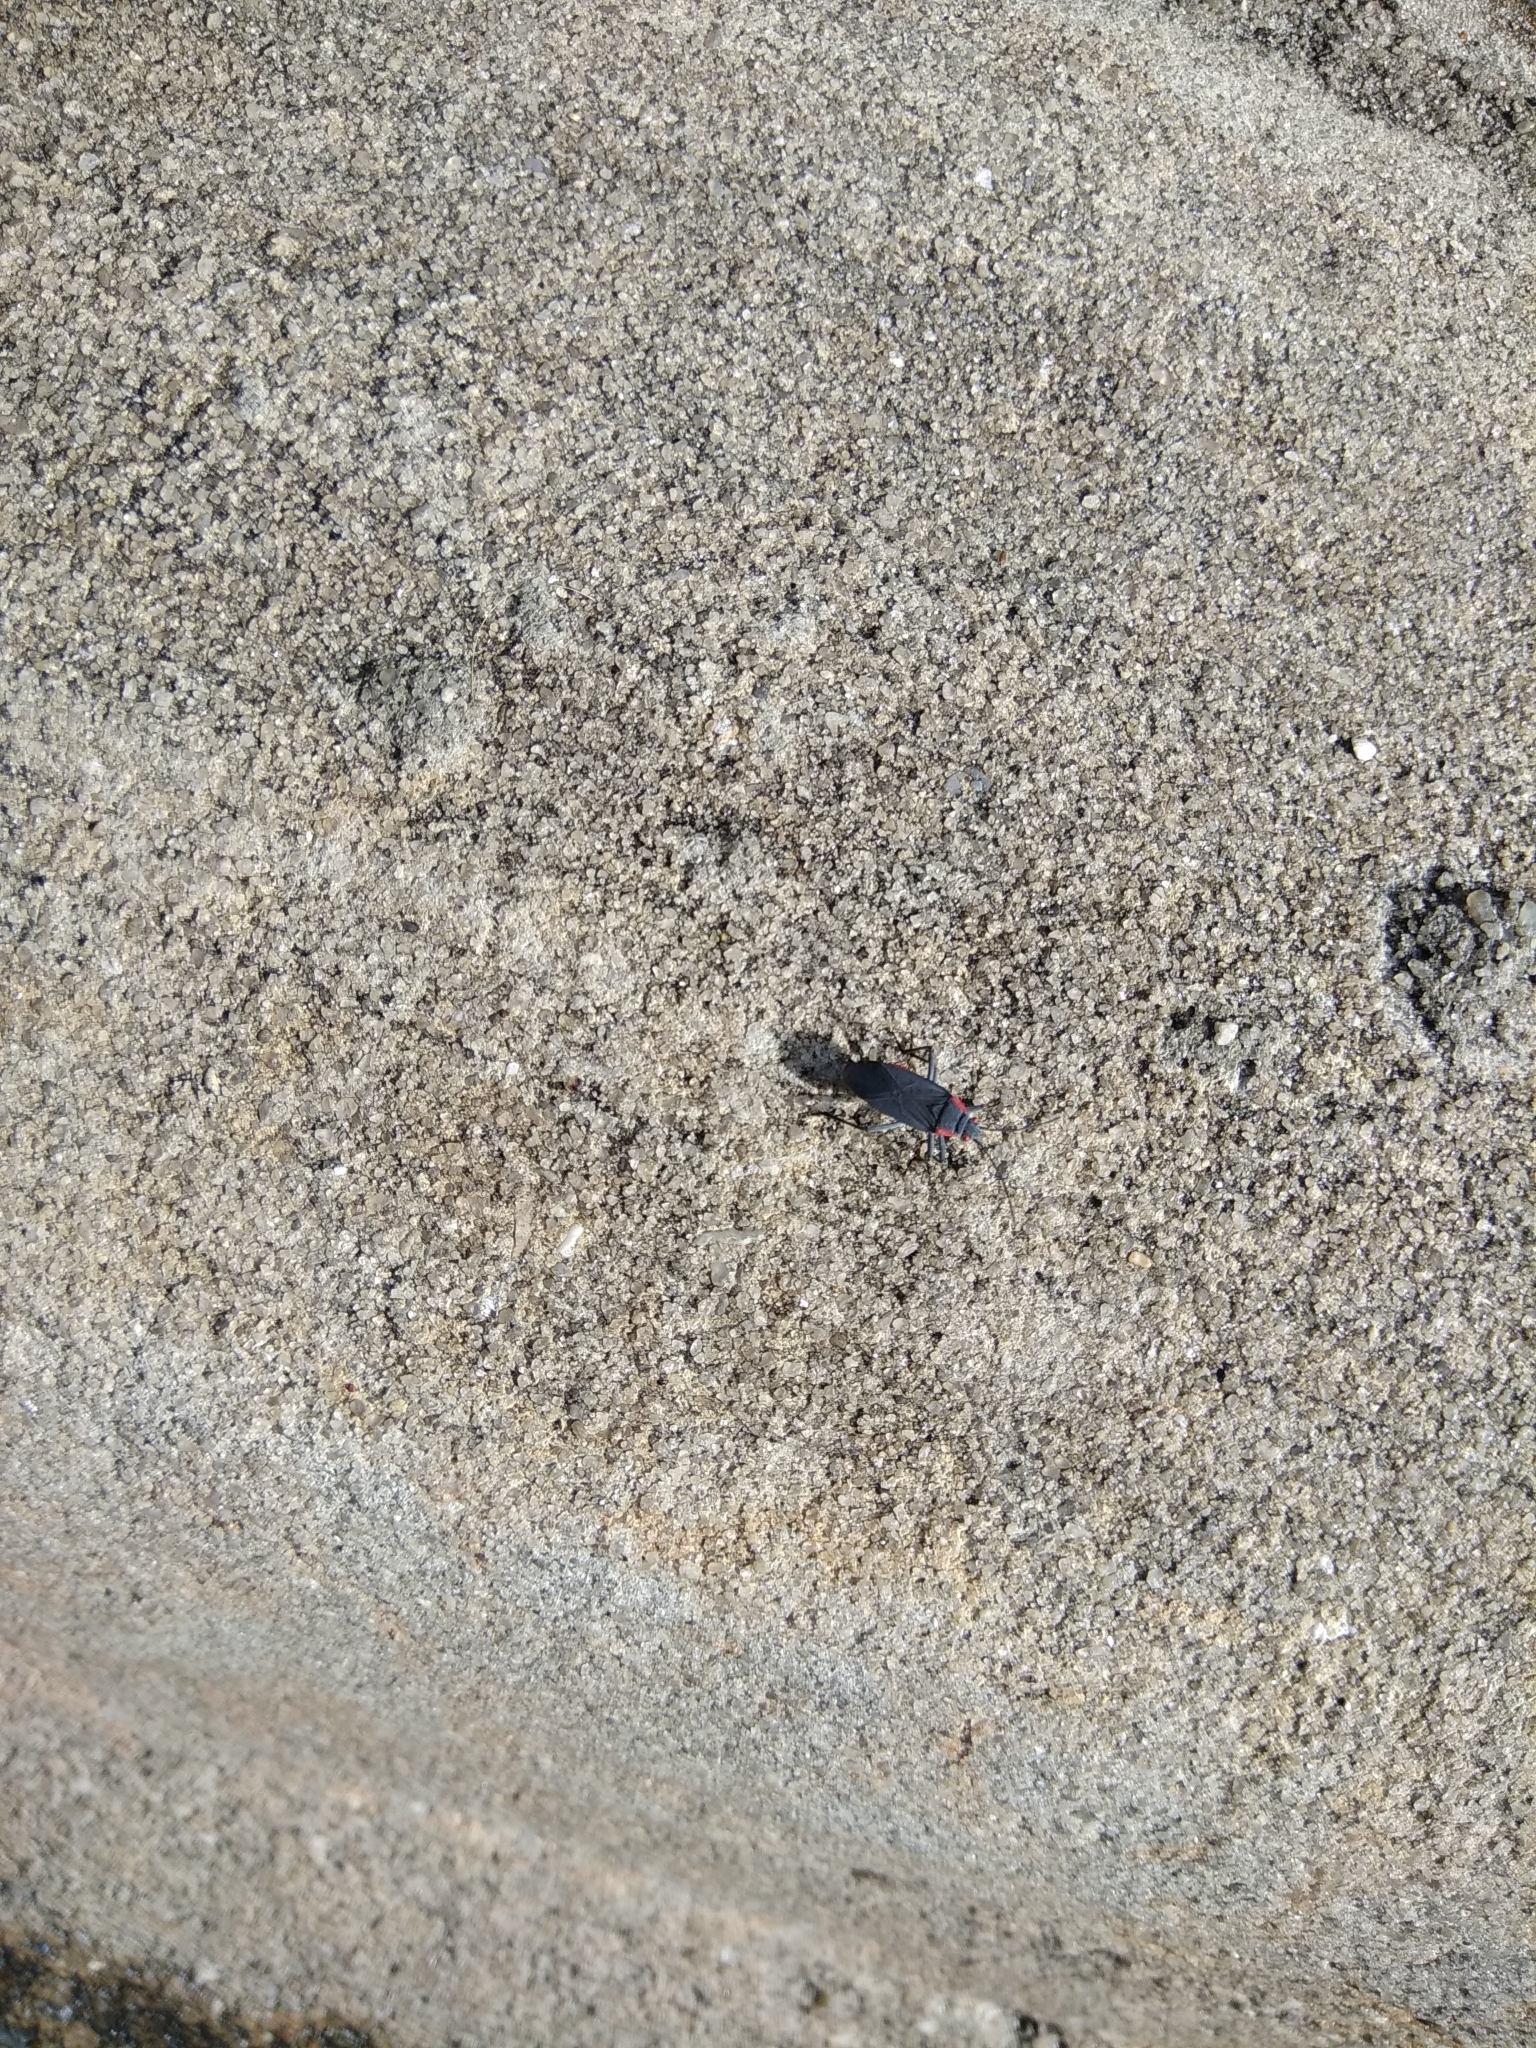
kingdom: Animalia
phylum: Arthropoda
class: Insecta
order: Hemiptera
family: Rhopalidae
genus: Jadera
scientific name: Jadera haematoloma
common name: Red-shouldered bug
